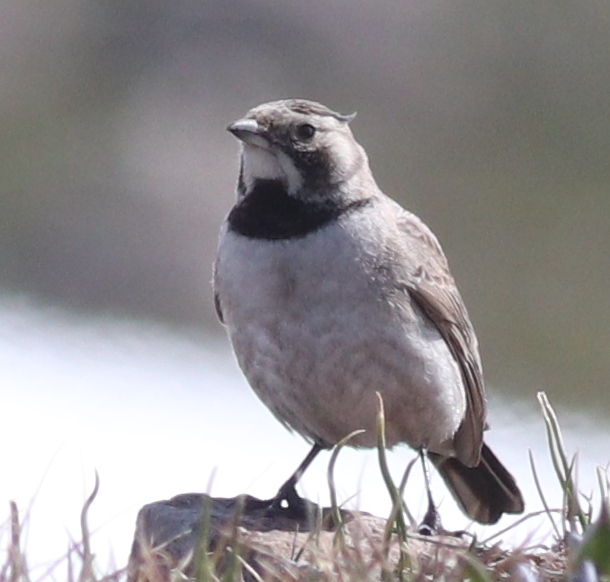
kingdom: Animalia
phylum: Chordata
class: Aves
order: Passeriformes
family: Alaudidae
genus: Eremophila
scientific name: Eremophila alpestris
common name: Horned lark
